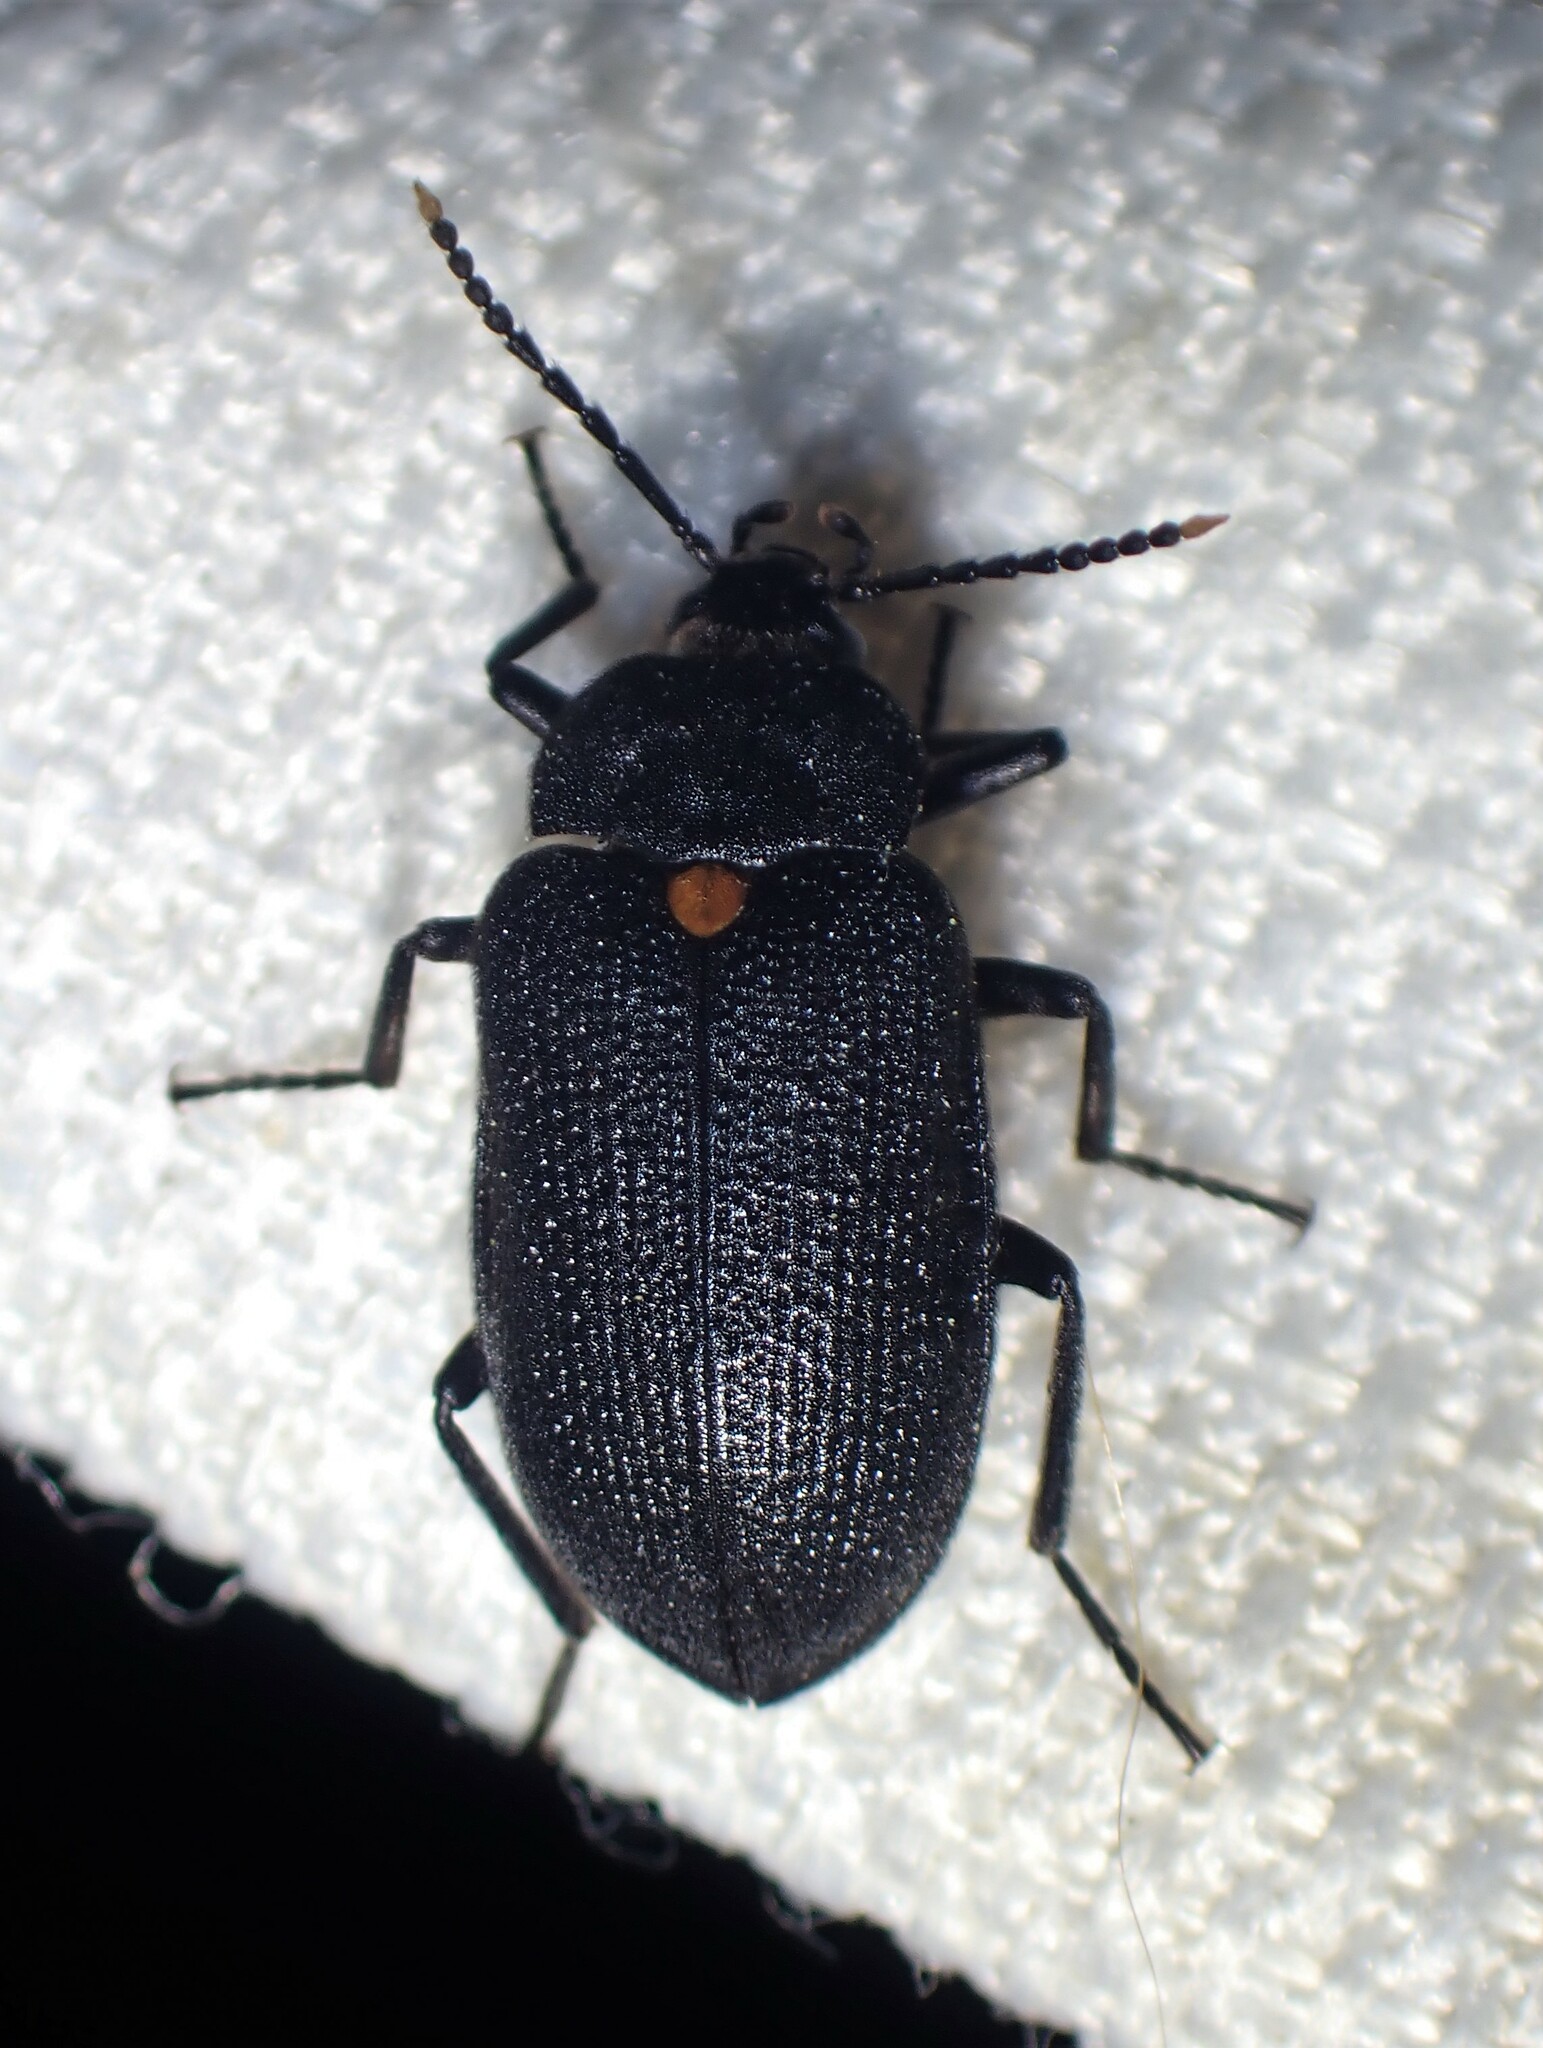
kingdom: Animalia
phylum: Arthropoda
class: Insecta
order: Coleoptera
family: Tetratomidae
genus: Penthe
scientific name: Penthe obliquata
